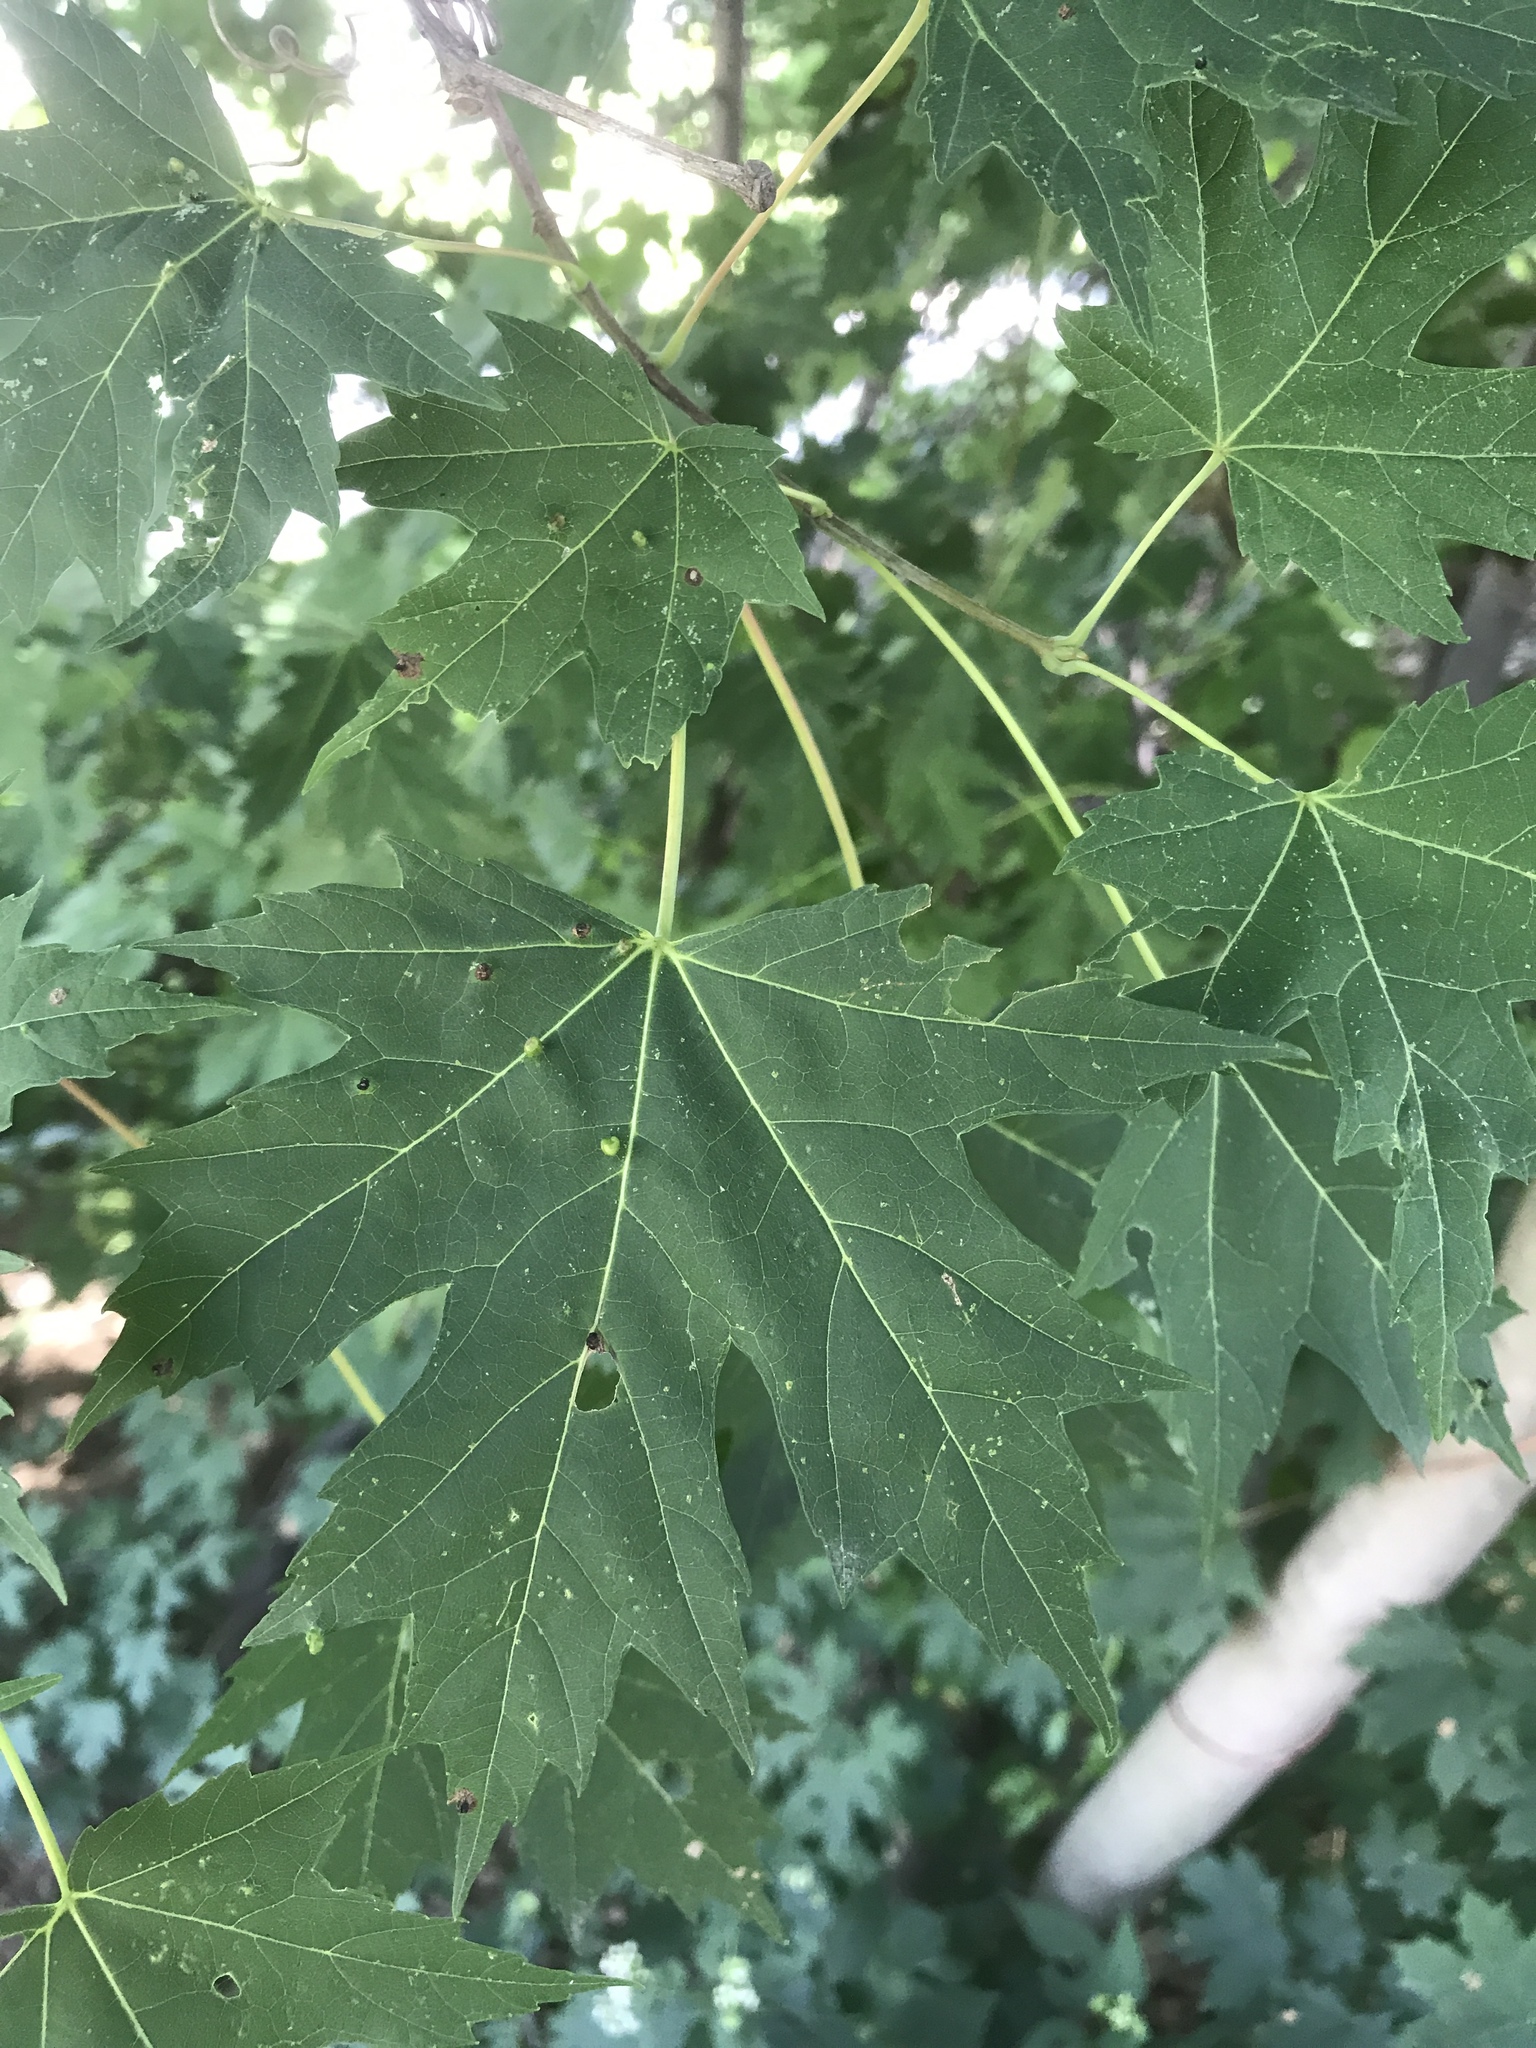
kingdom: Plantae
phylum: Tracheophyta
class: Magnoliopsida
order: Sapindales
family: Sapindaceae
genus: Acer
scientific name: Acer saccharinum
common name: Silver maple
